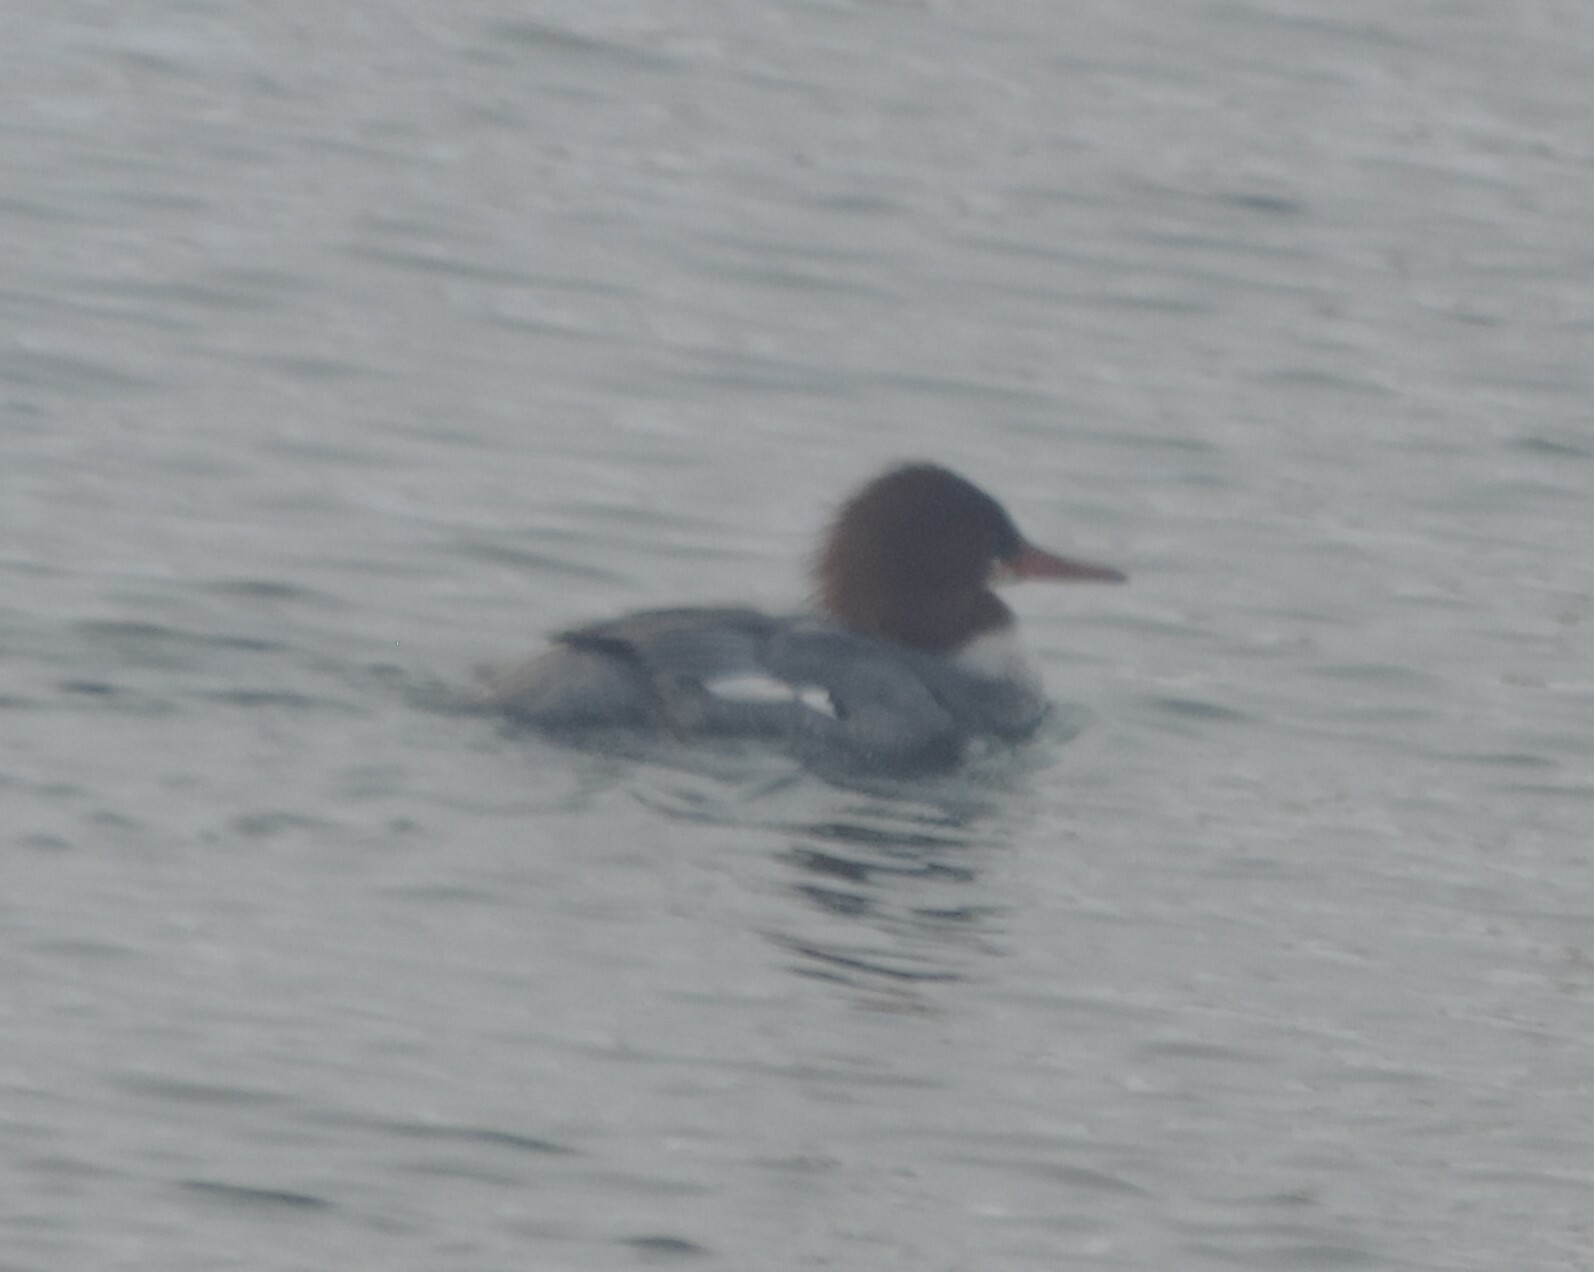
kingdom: Animalia
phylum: Chordata
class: Aves
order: Anseriformes
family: Anatidae
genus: Mergus
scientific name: Mergus merganser
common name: Common merganser
